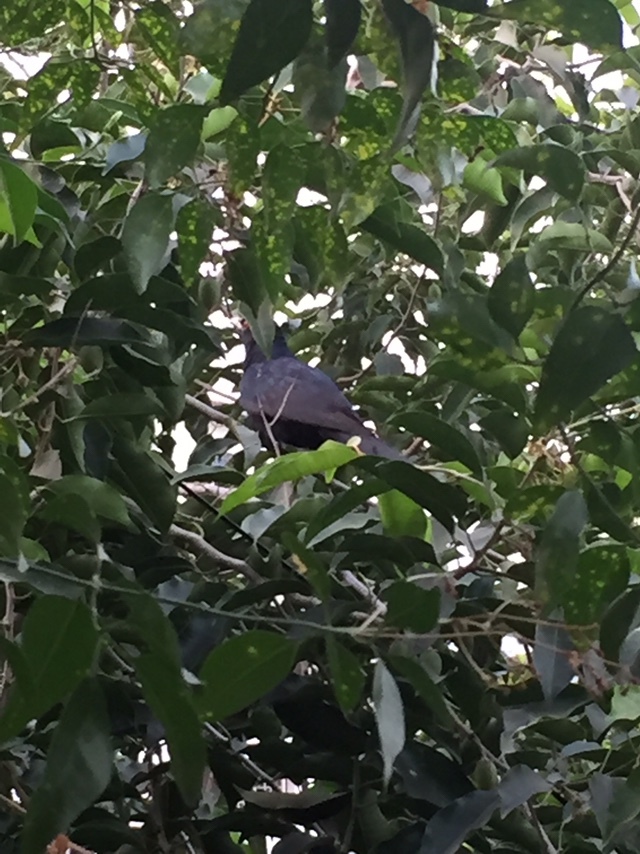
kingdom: Animalia
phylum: Chordata
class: Aves
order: Cuculiformes
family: Cuculidae
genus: Eudynamys
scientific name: Eudynamys scolopaceus
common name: Asian koel
